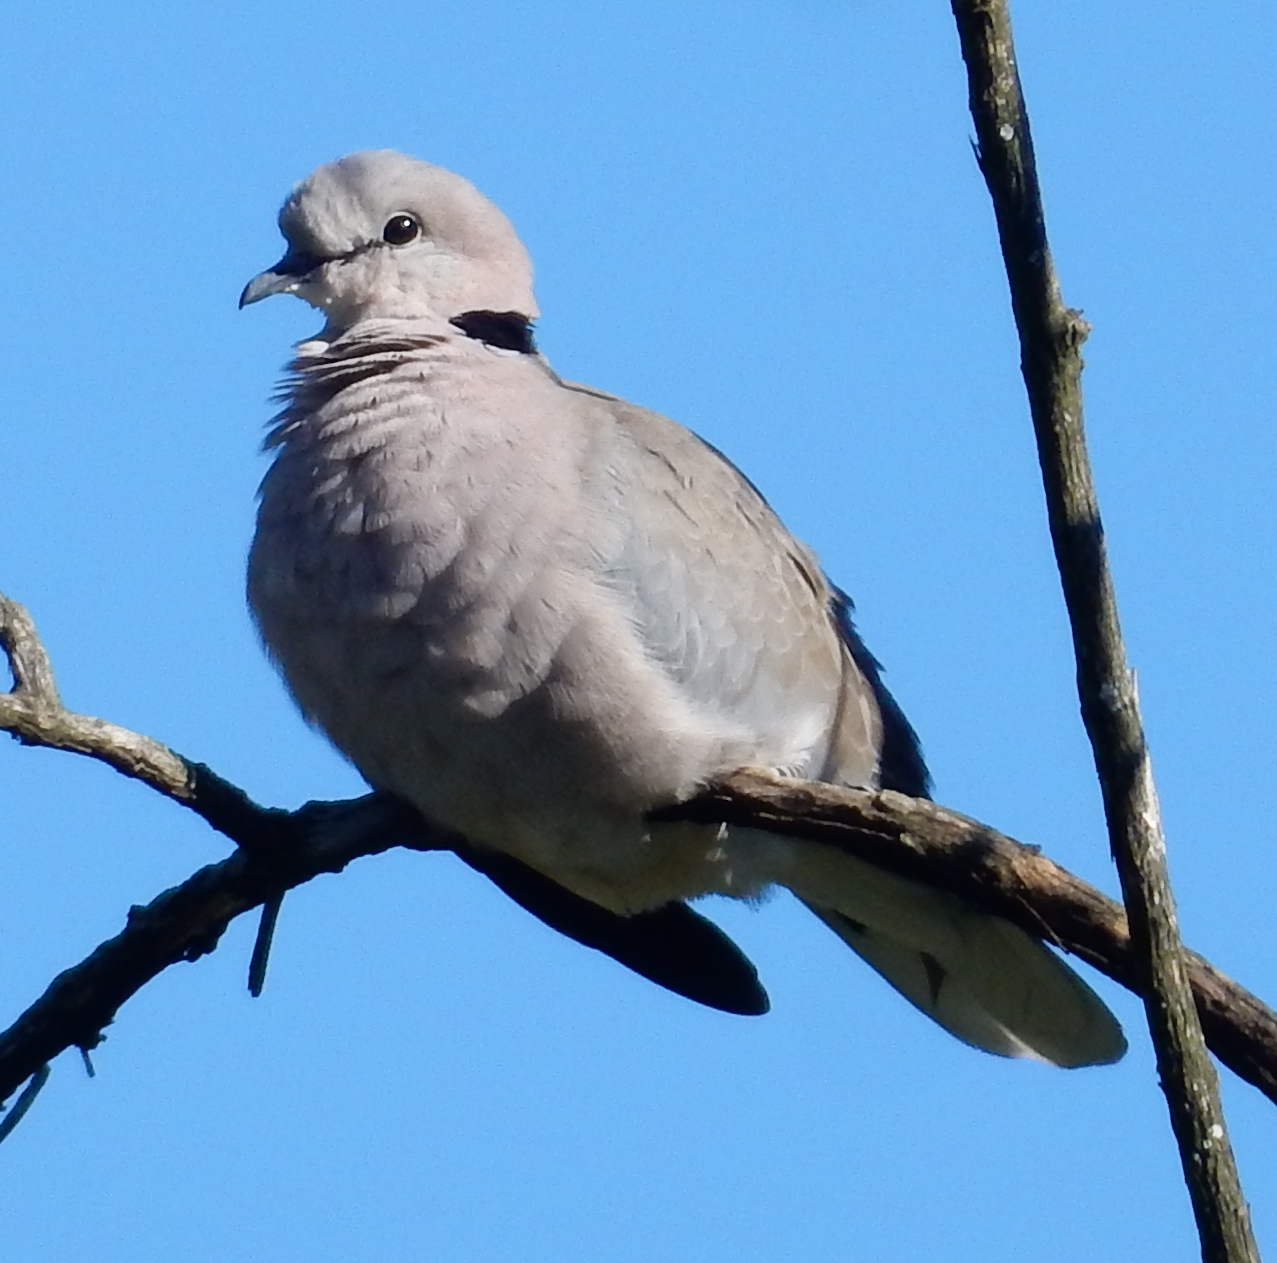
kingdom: Animalia
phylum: Chordata
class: Aves
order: Columbiformes
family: Columbidae
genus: Streptopelia
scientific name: Streptopelia capicola
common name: Ring-necked dove
